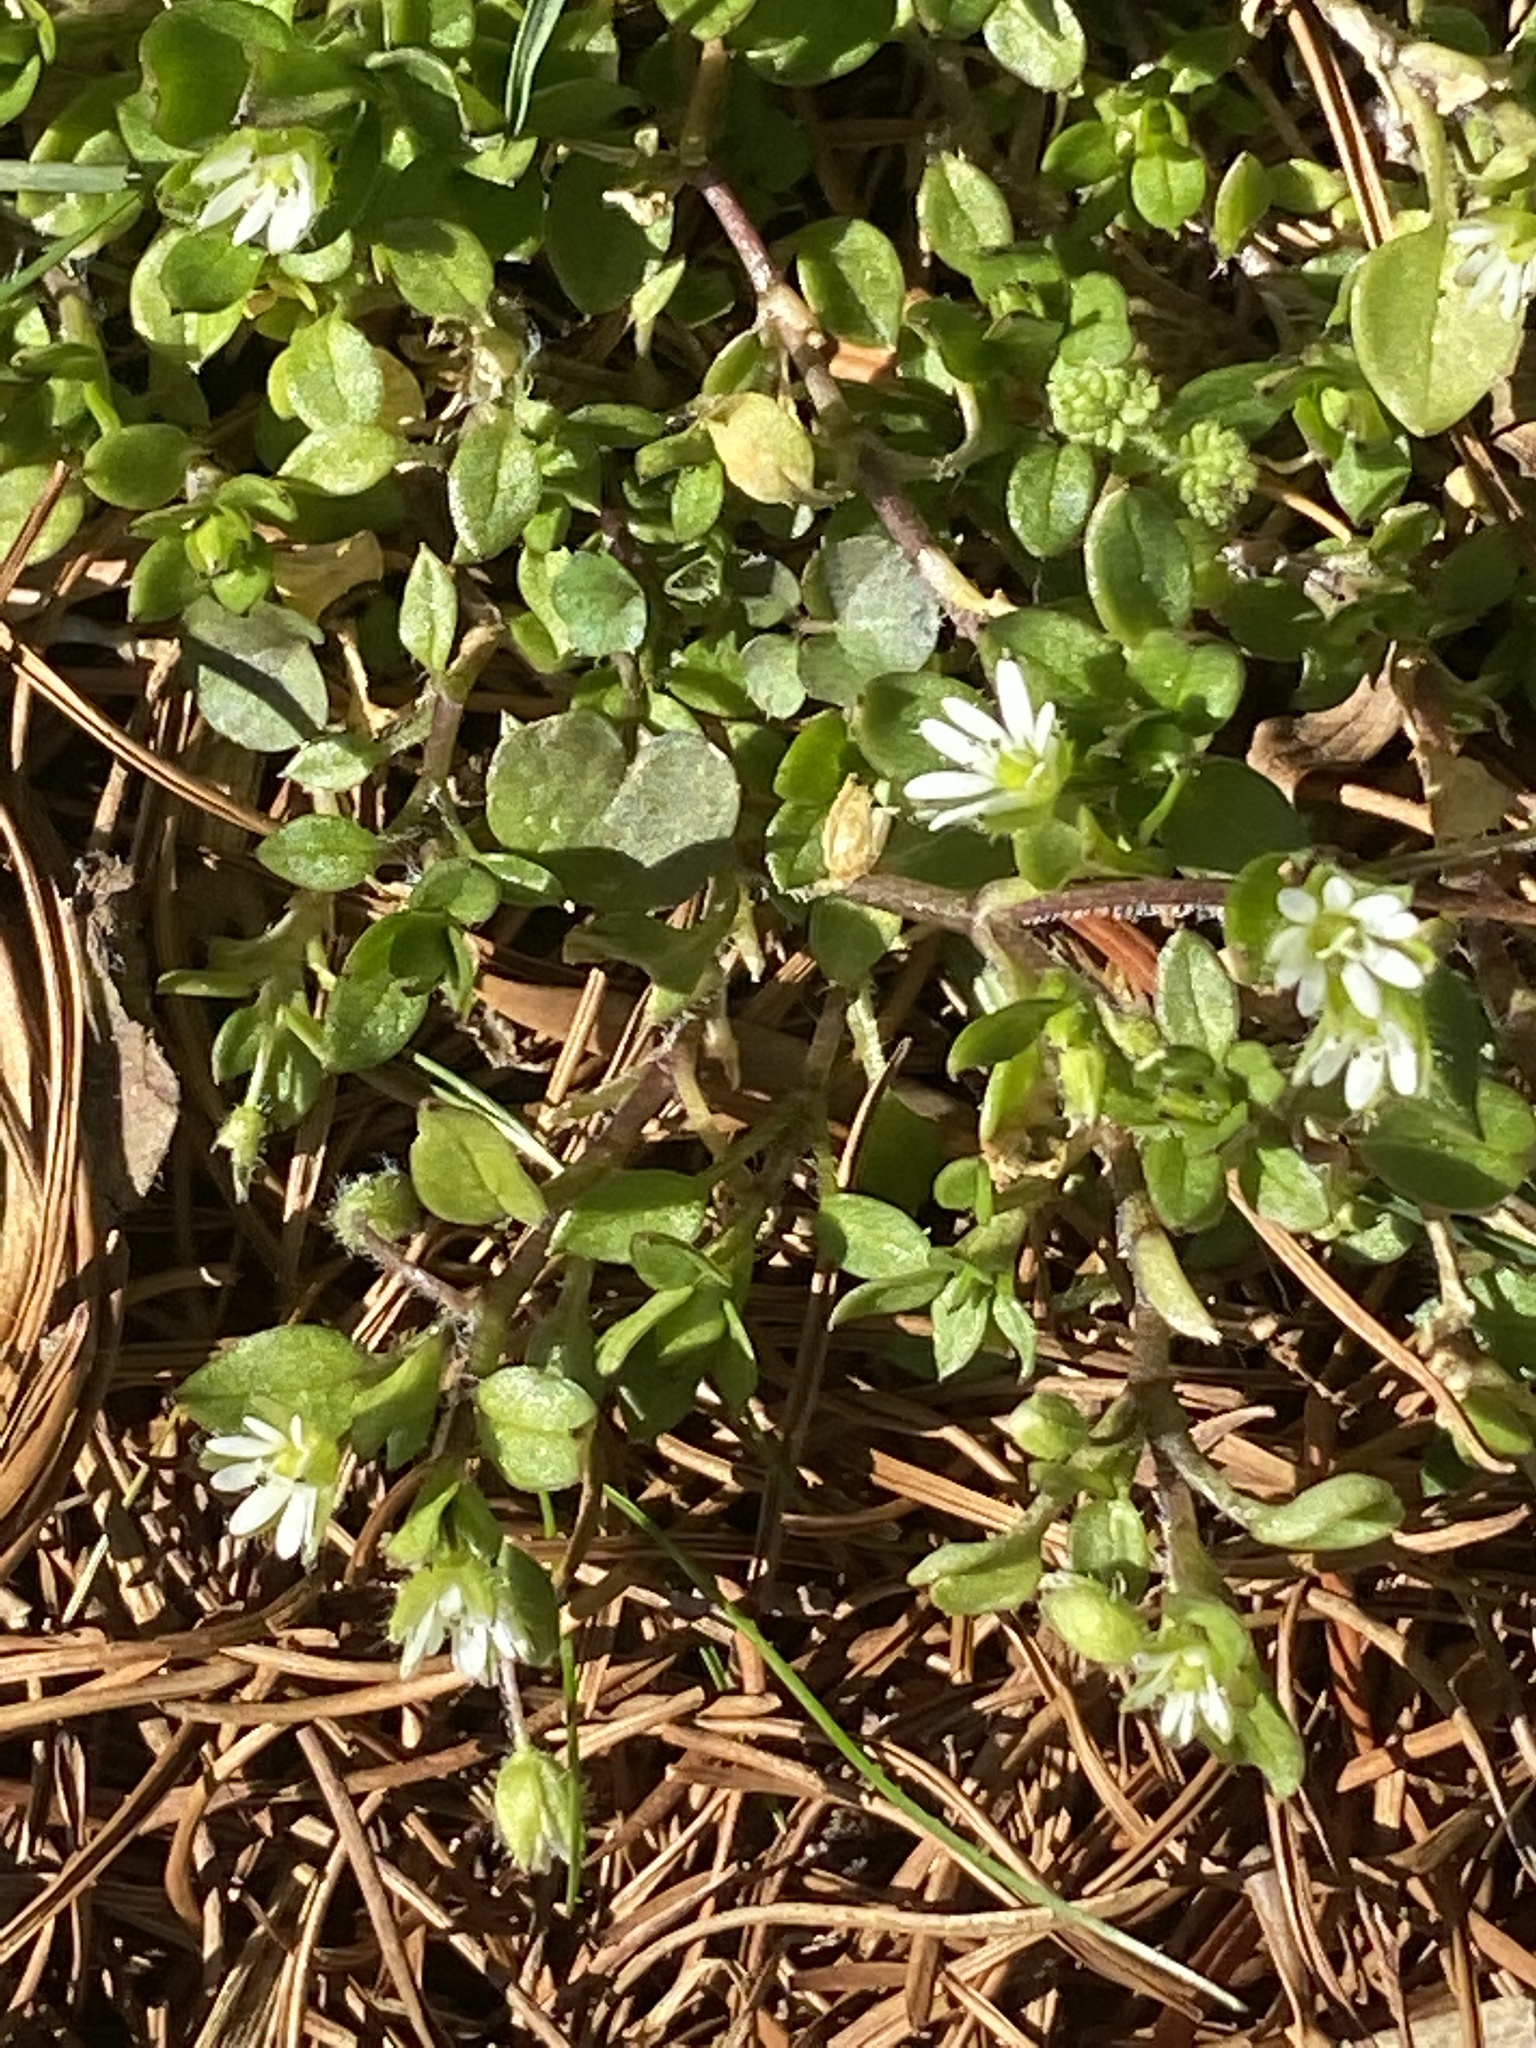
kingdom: Plantae
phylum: Tracheophyta
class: Magnoliopsida
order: Caryophyllales
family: Caryophyllaceae
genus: Stellaria
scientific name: Stellaria media
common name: Common chickweed
